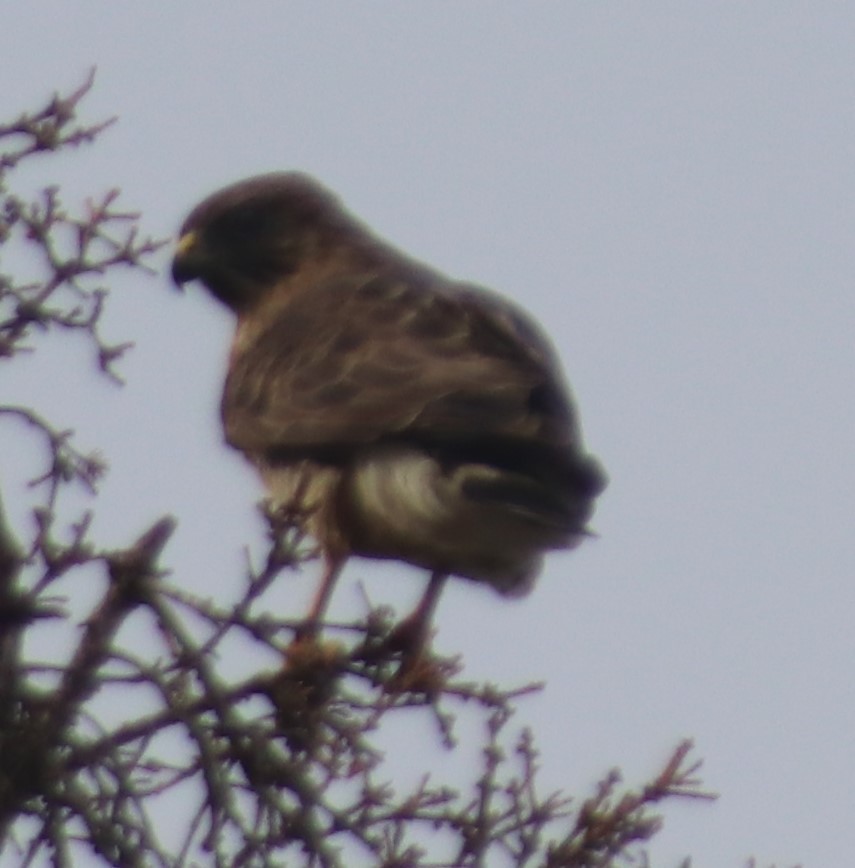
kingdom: Animalia
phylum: Chordata
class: Aves
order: Accipitriformes
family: Accipitridae
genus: Buteo
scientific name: Buteo platypterus
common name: Broad-winged hawk
